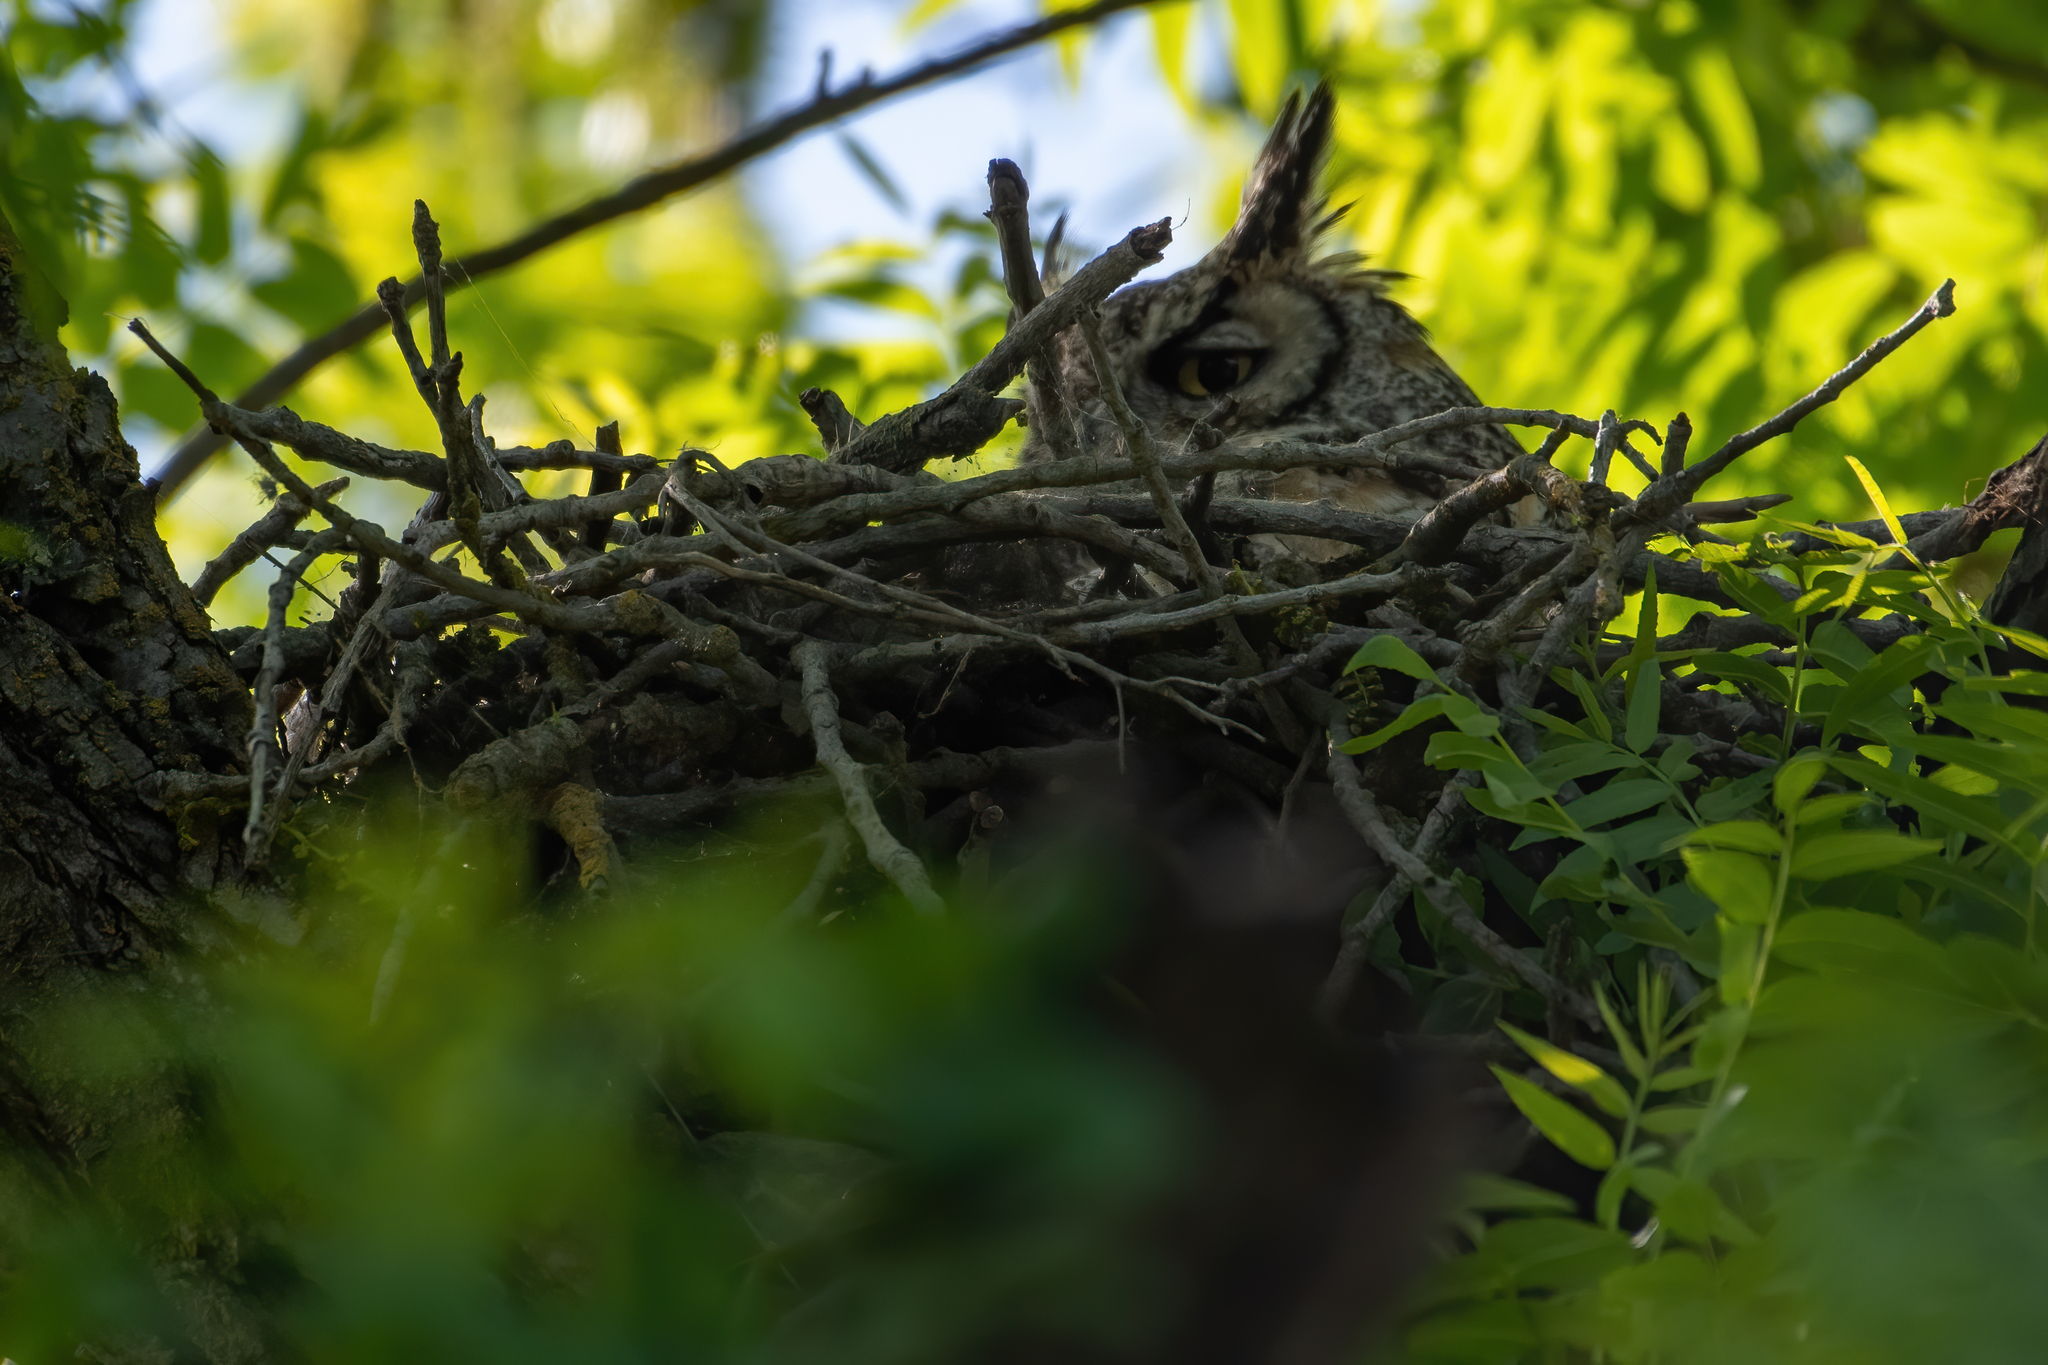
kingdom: Animalia
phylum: Chordata
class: Aves
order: Strigiformes
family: Strigidae
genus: Bubo
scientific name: Bubo virginianus
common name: Great horned owl
